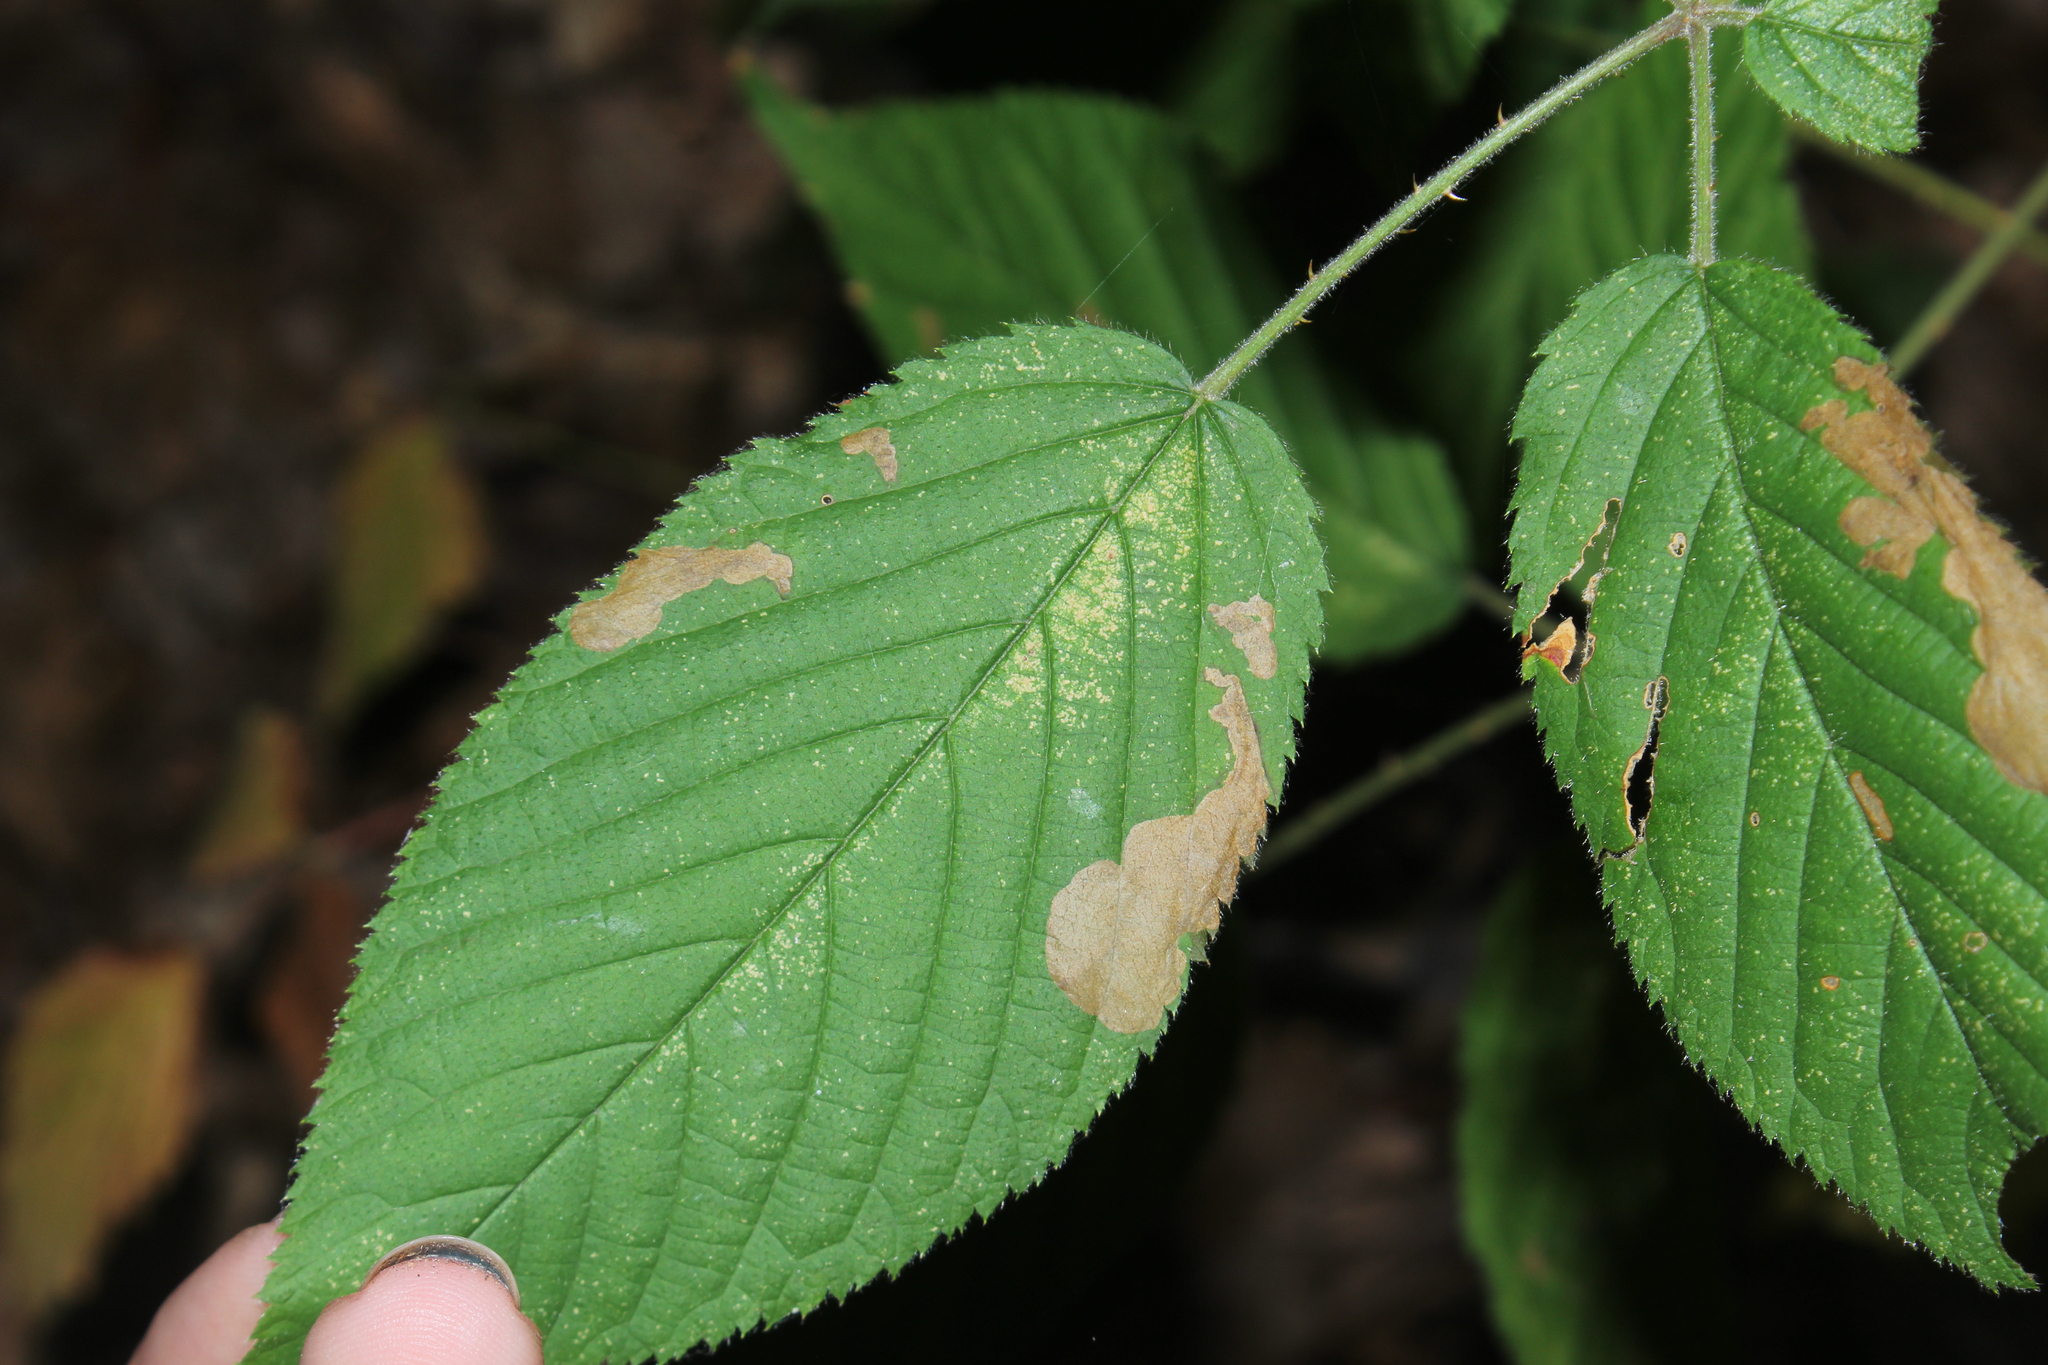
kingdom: Animalia
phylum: Arthropoda
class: Insecta
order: Hymenoptera
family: Tenthredinidae
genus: Metallus
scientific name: Metallus rohweri
